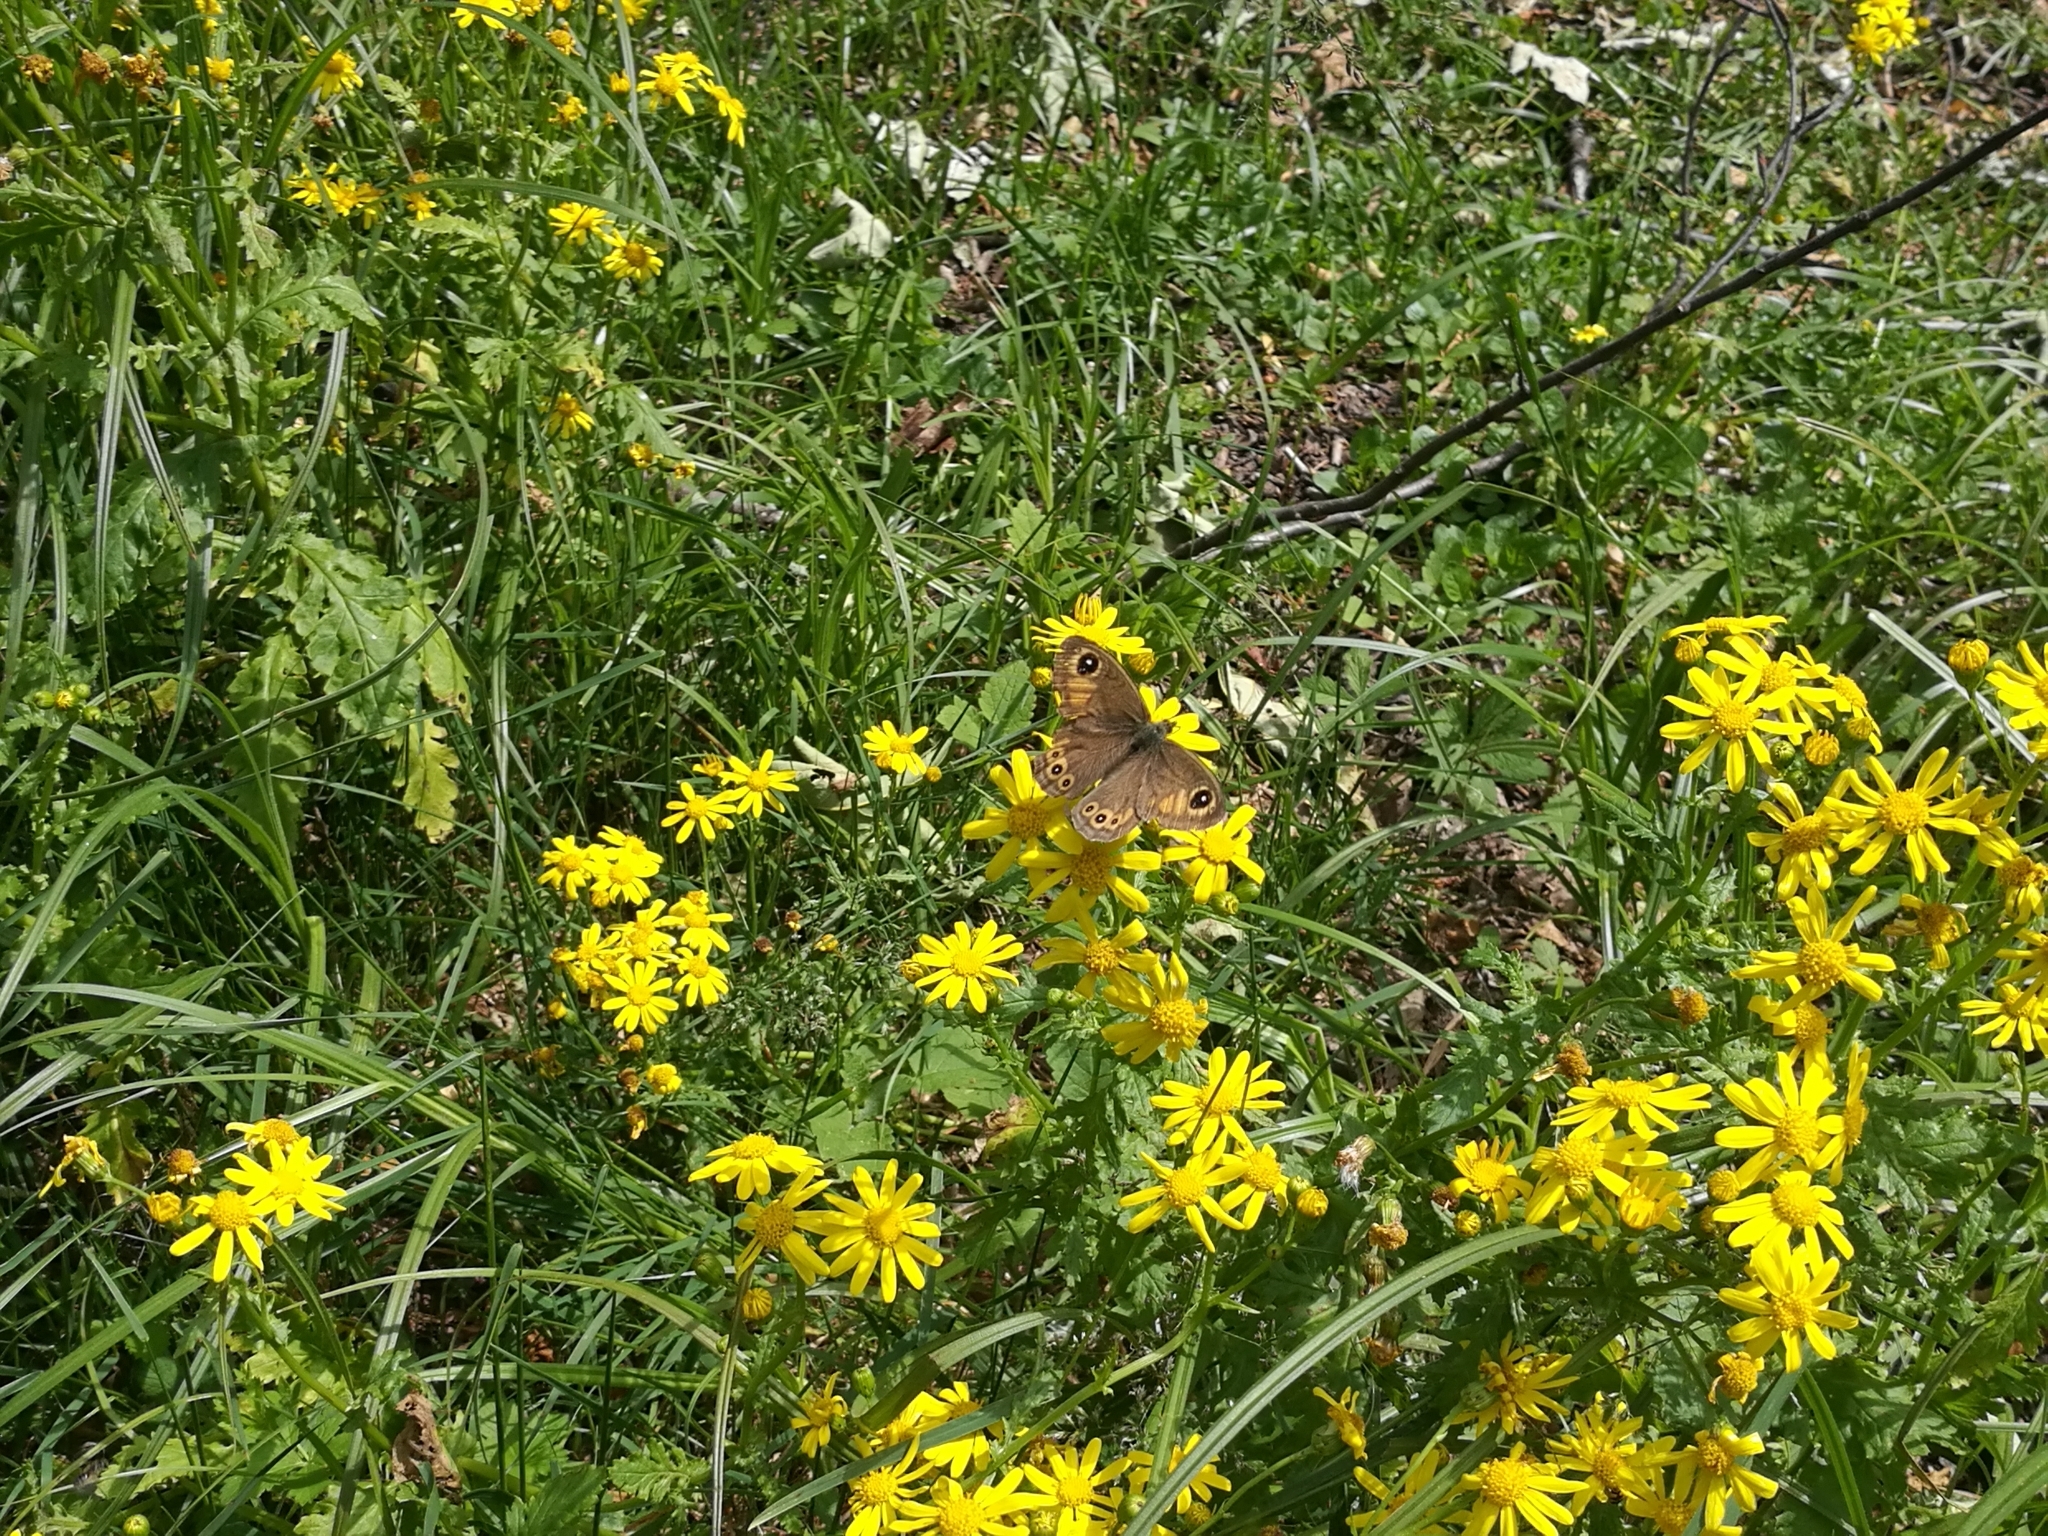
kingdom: Animalia
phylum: Arthropoda
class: Insecta
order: Lepidoptera
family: Nymphalidae
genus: Pararge
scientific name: Pararge Lasiommata maera
